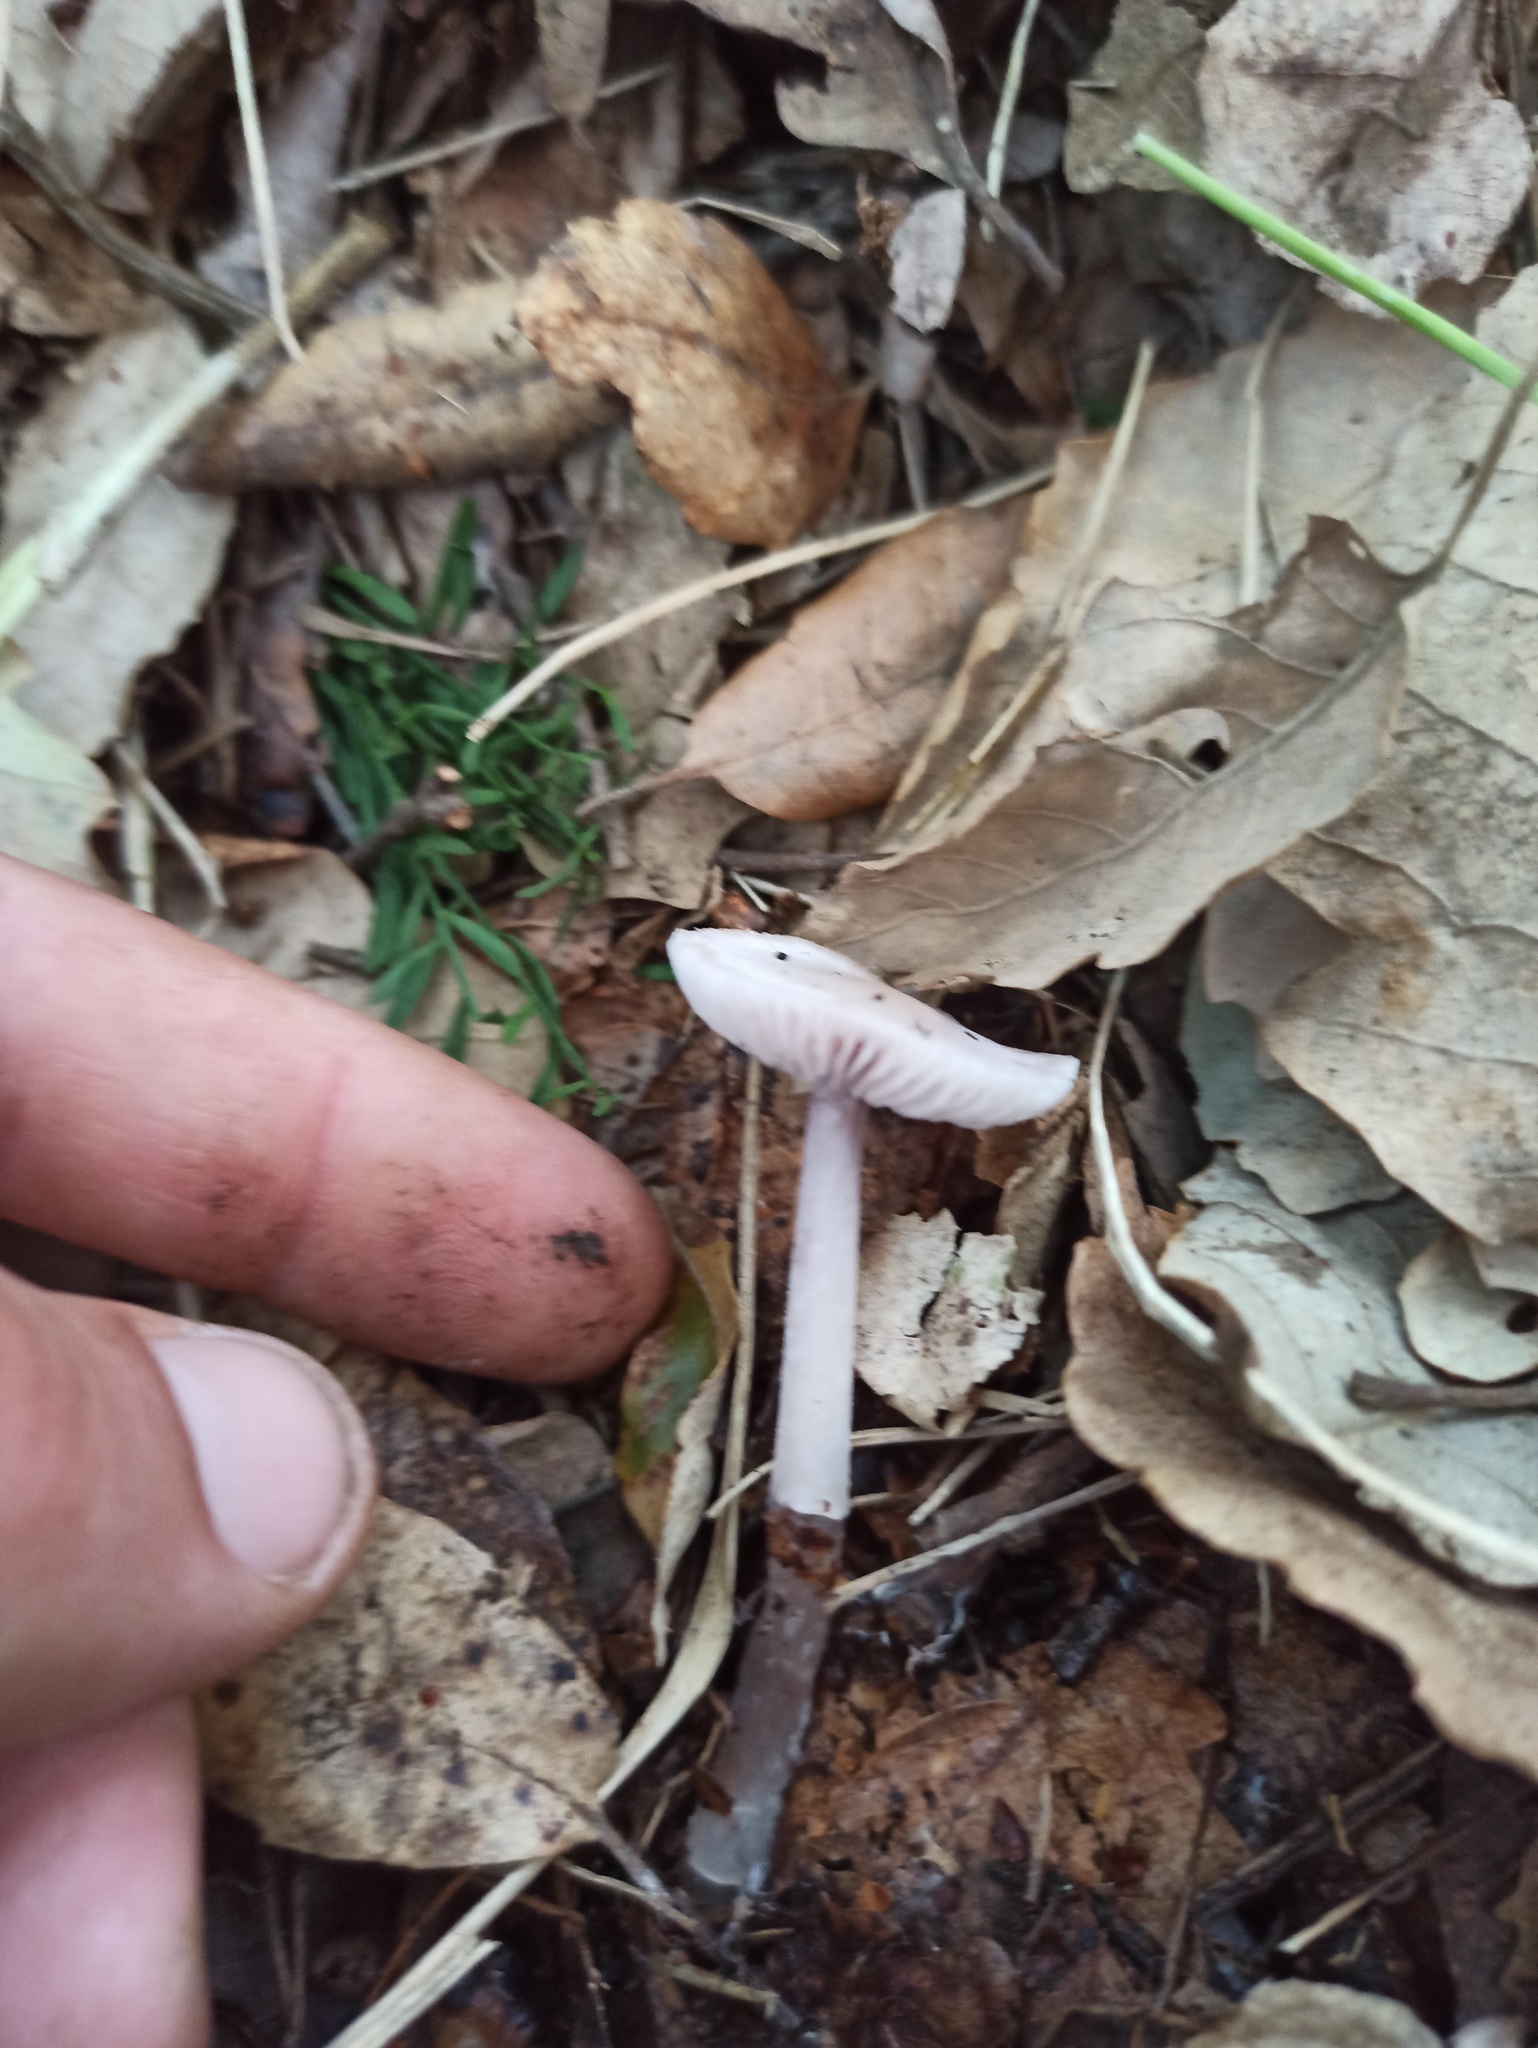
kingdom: Fungi
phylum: Basidiomycota
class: Agaricomycetes
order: Agaricales
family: Mycenaceae
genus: Mycena
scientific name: Mycena pura
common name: Lilac bonnet
